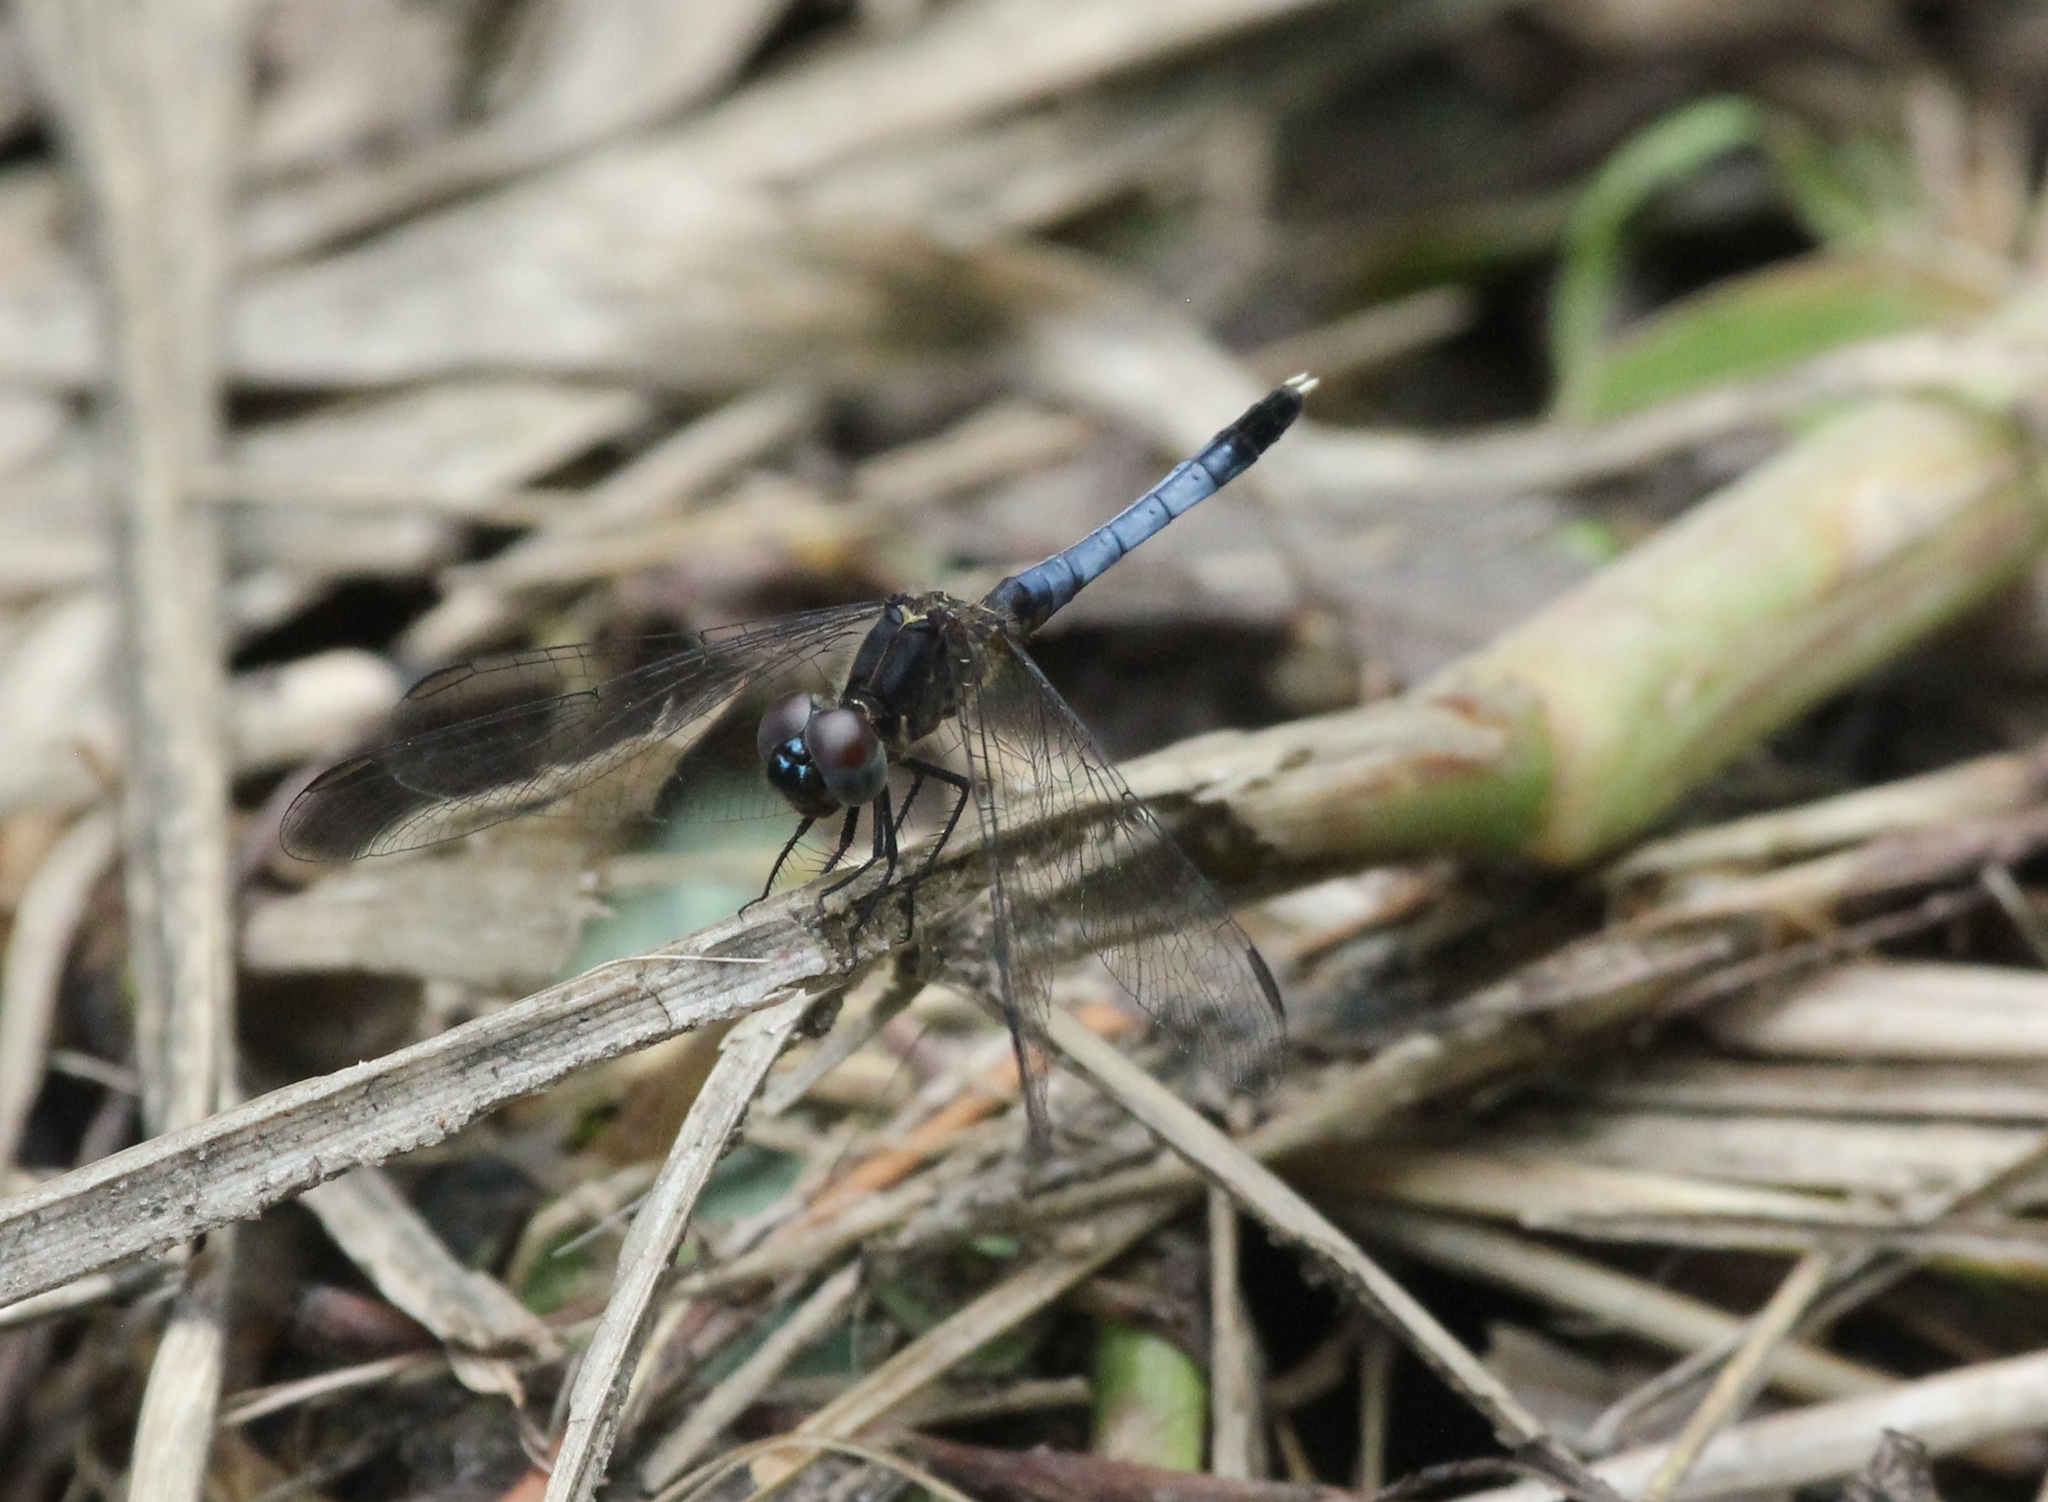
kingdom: Animalia
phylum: Arthropoda
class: Insecta
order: Odonata
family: Libellulidae
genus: Erythrodiplax
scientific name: Erythrodiplax minuscula
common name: Little blue dragonlet
